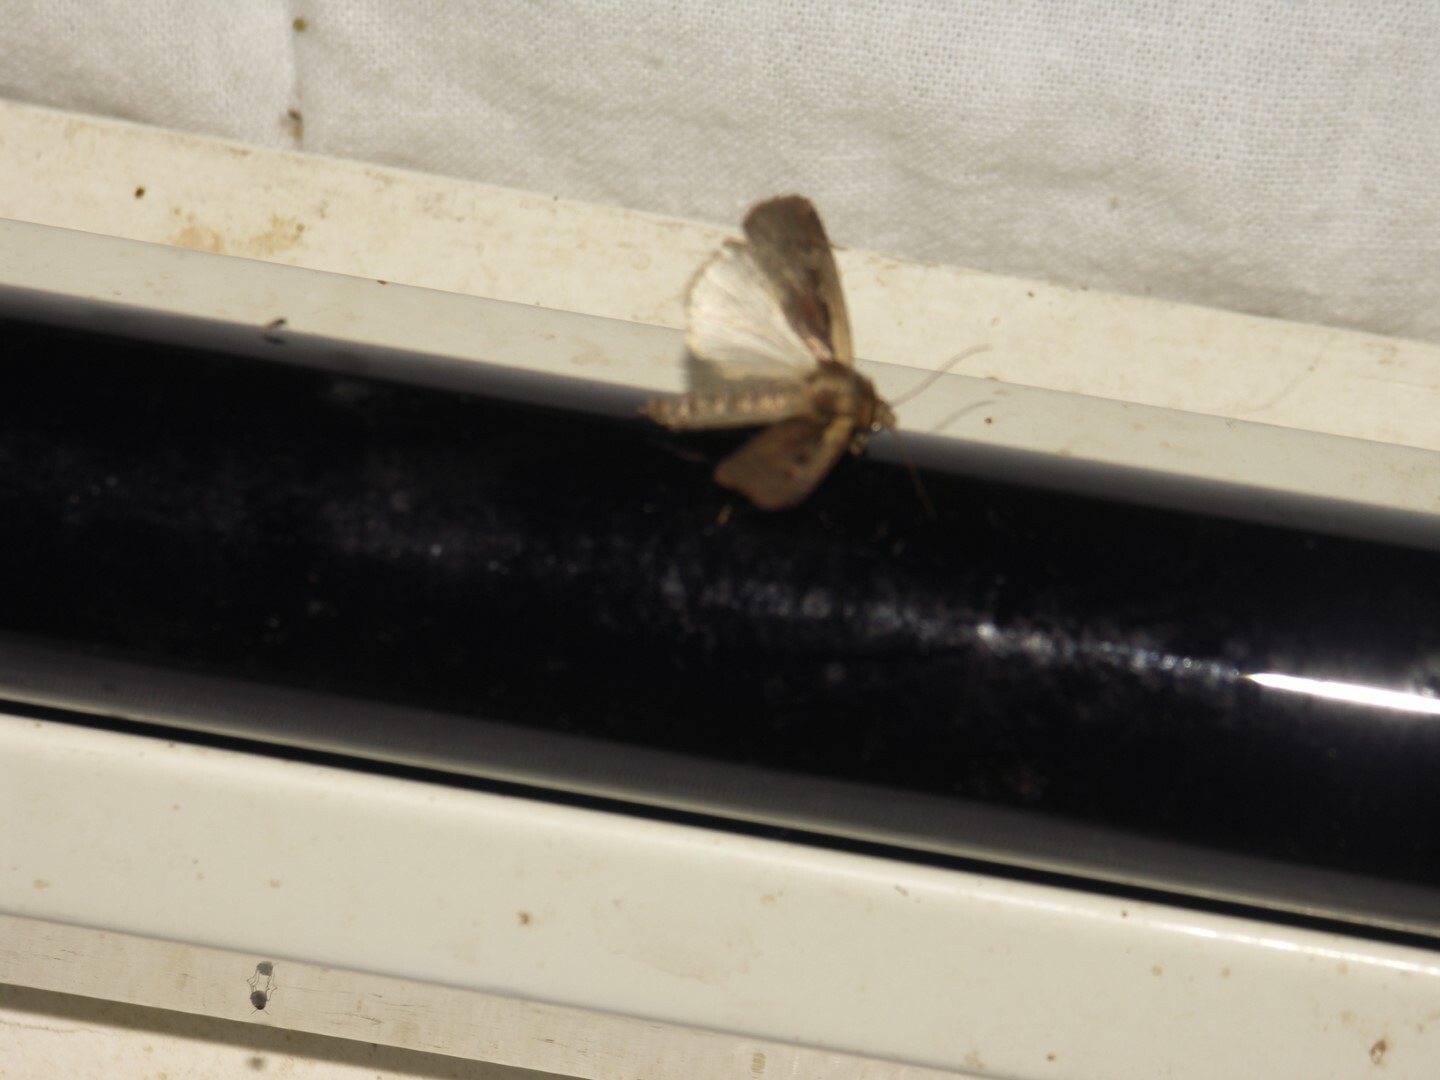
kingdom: Animalia
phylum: Arthropoda
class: Insecta
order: Lepidoptera
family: Noctuidae
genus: Ochropleura
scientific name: Ochropleura plecta
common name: Flame shoulder
